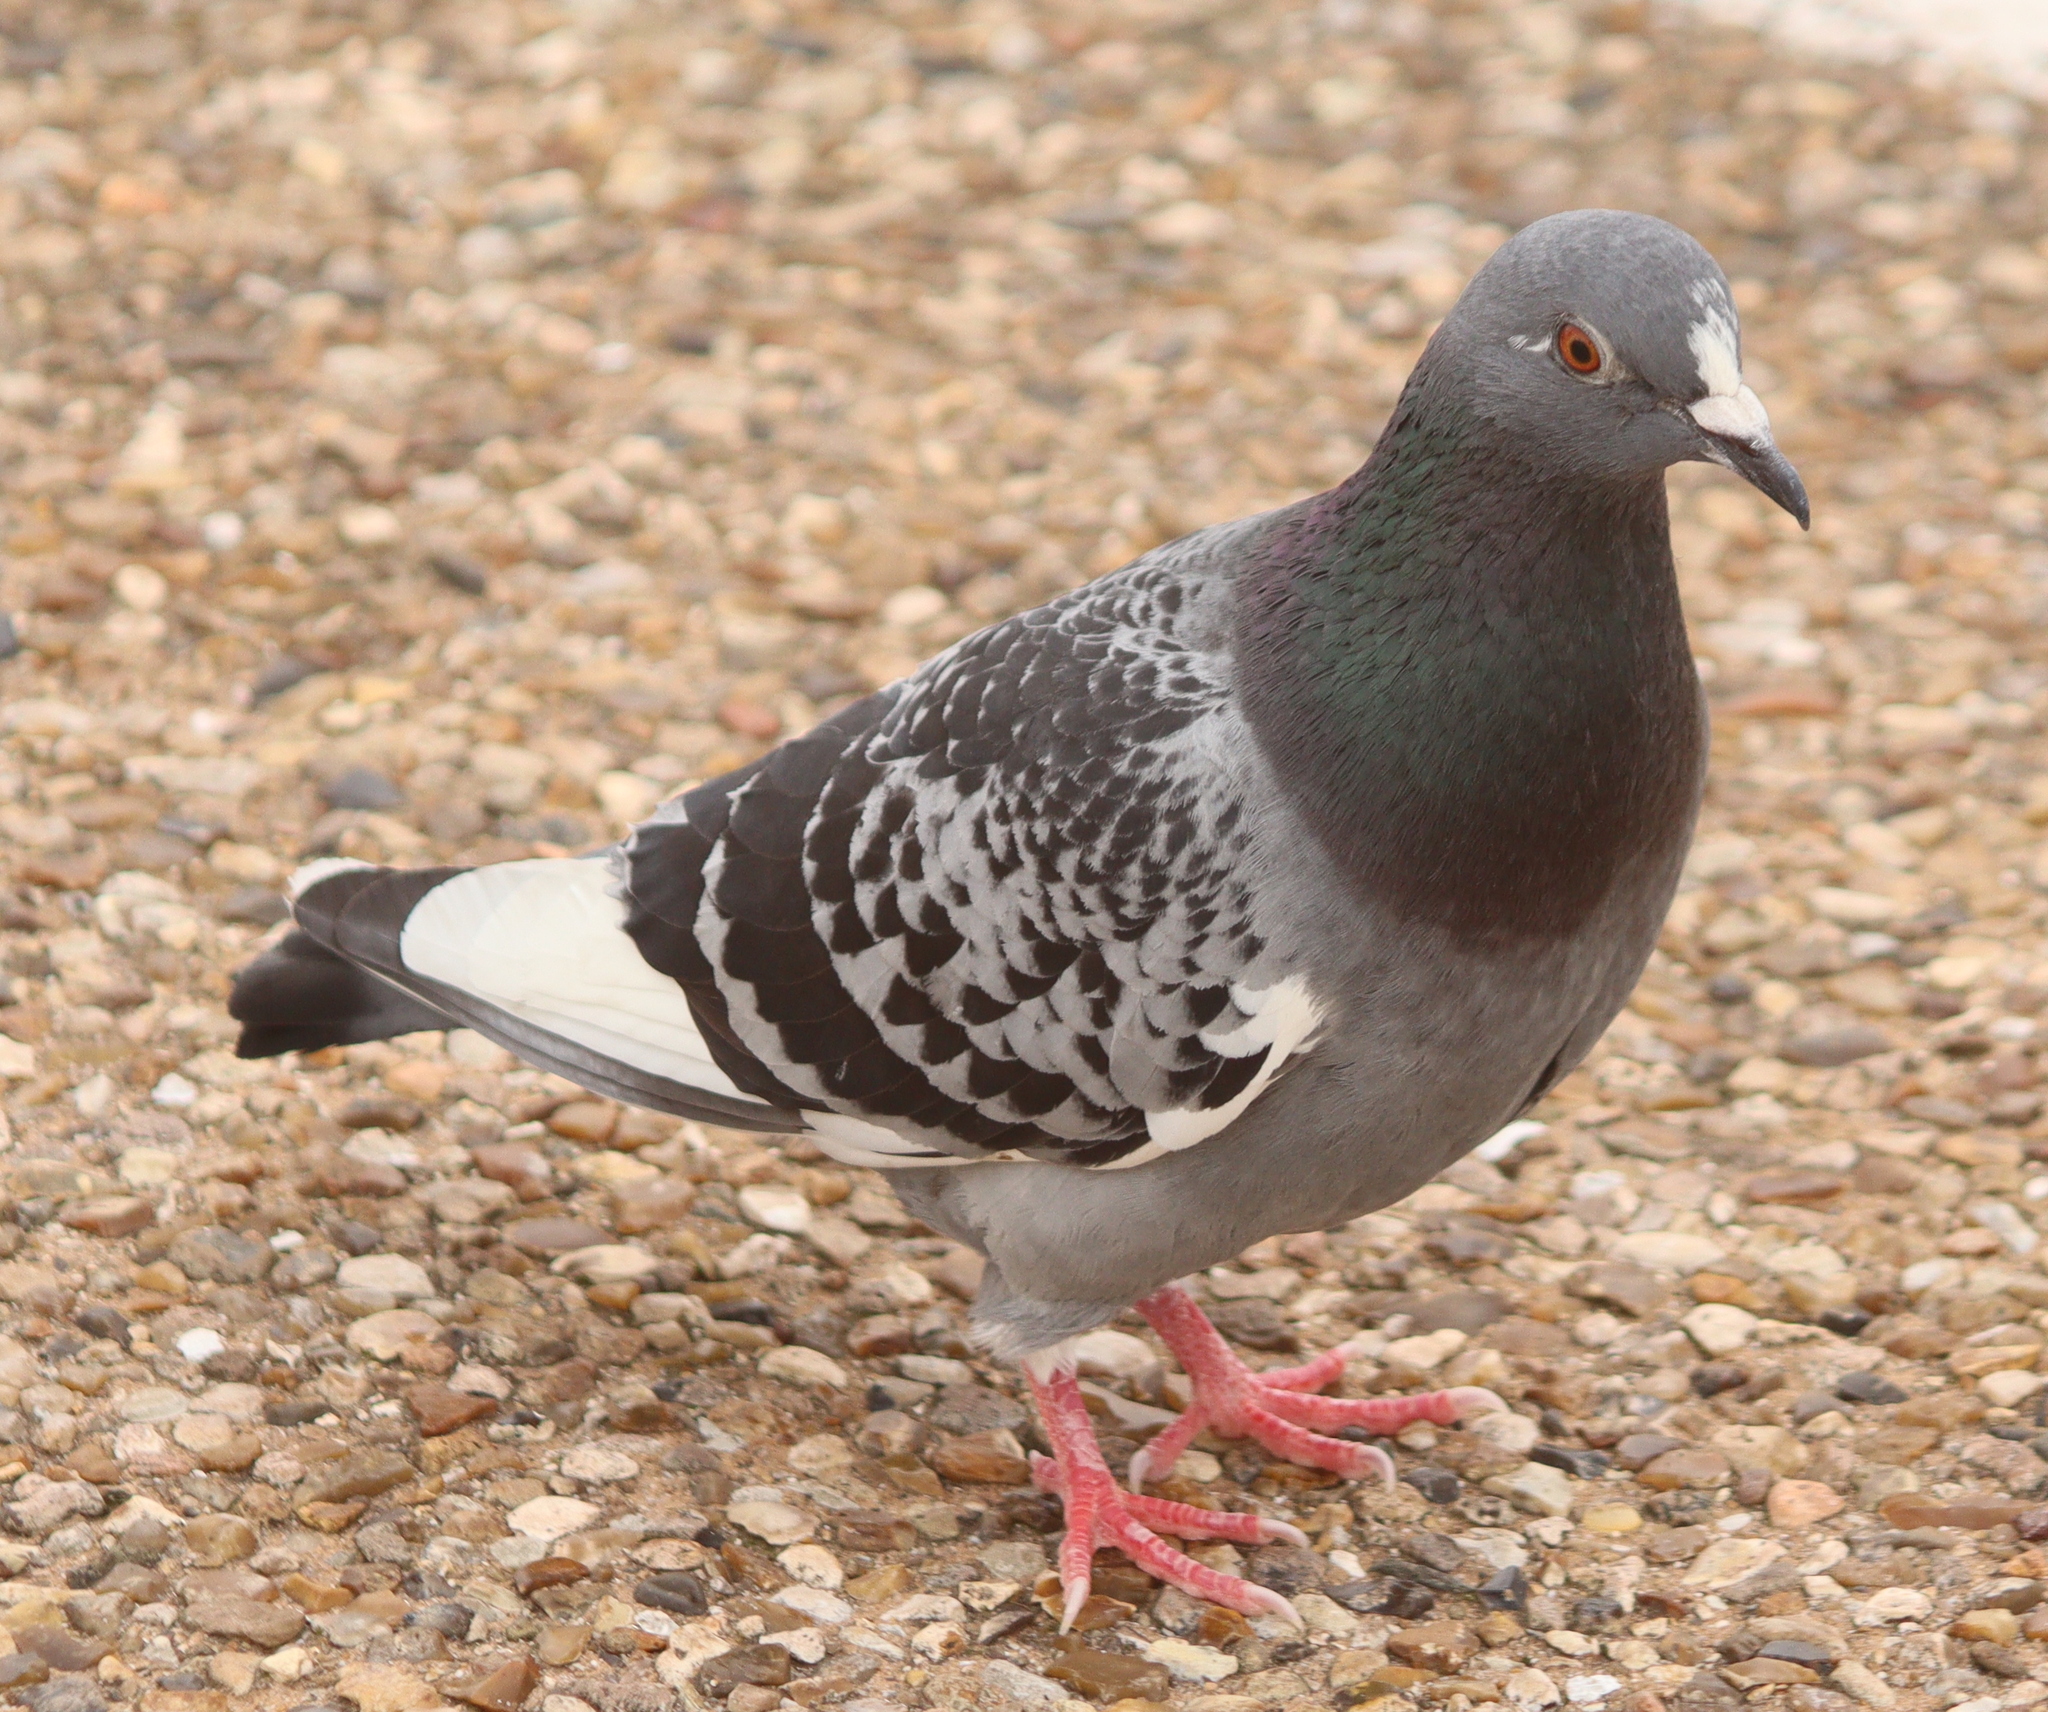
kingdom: Animalia
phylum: Chordata
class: Aves
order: Columbiformes
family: Columbidae
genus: Columba
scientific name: Columba livia
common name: Rock pigeon
